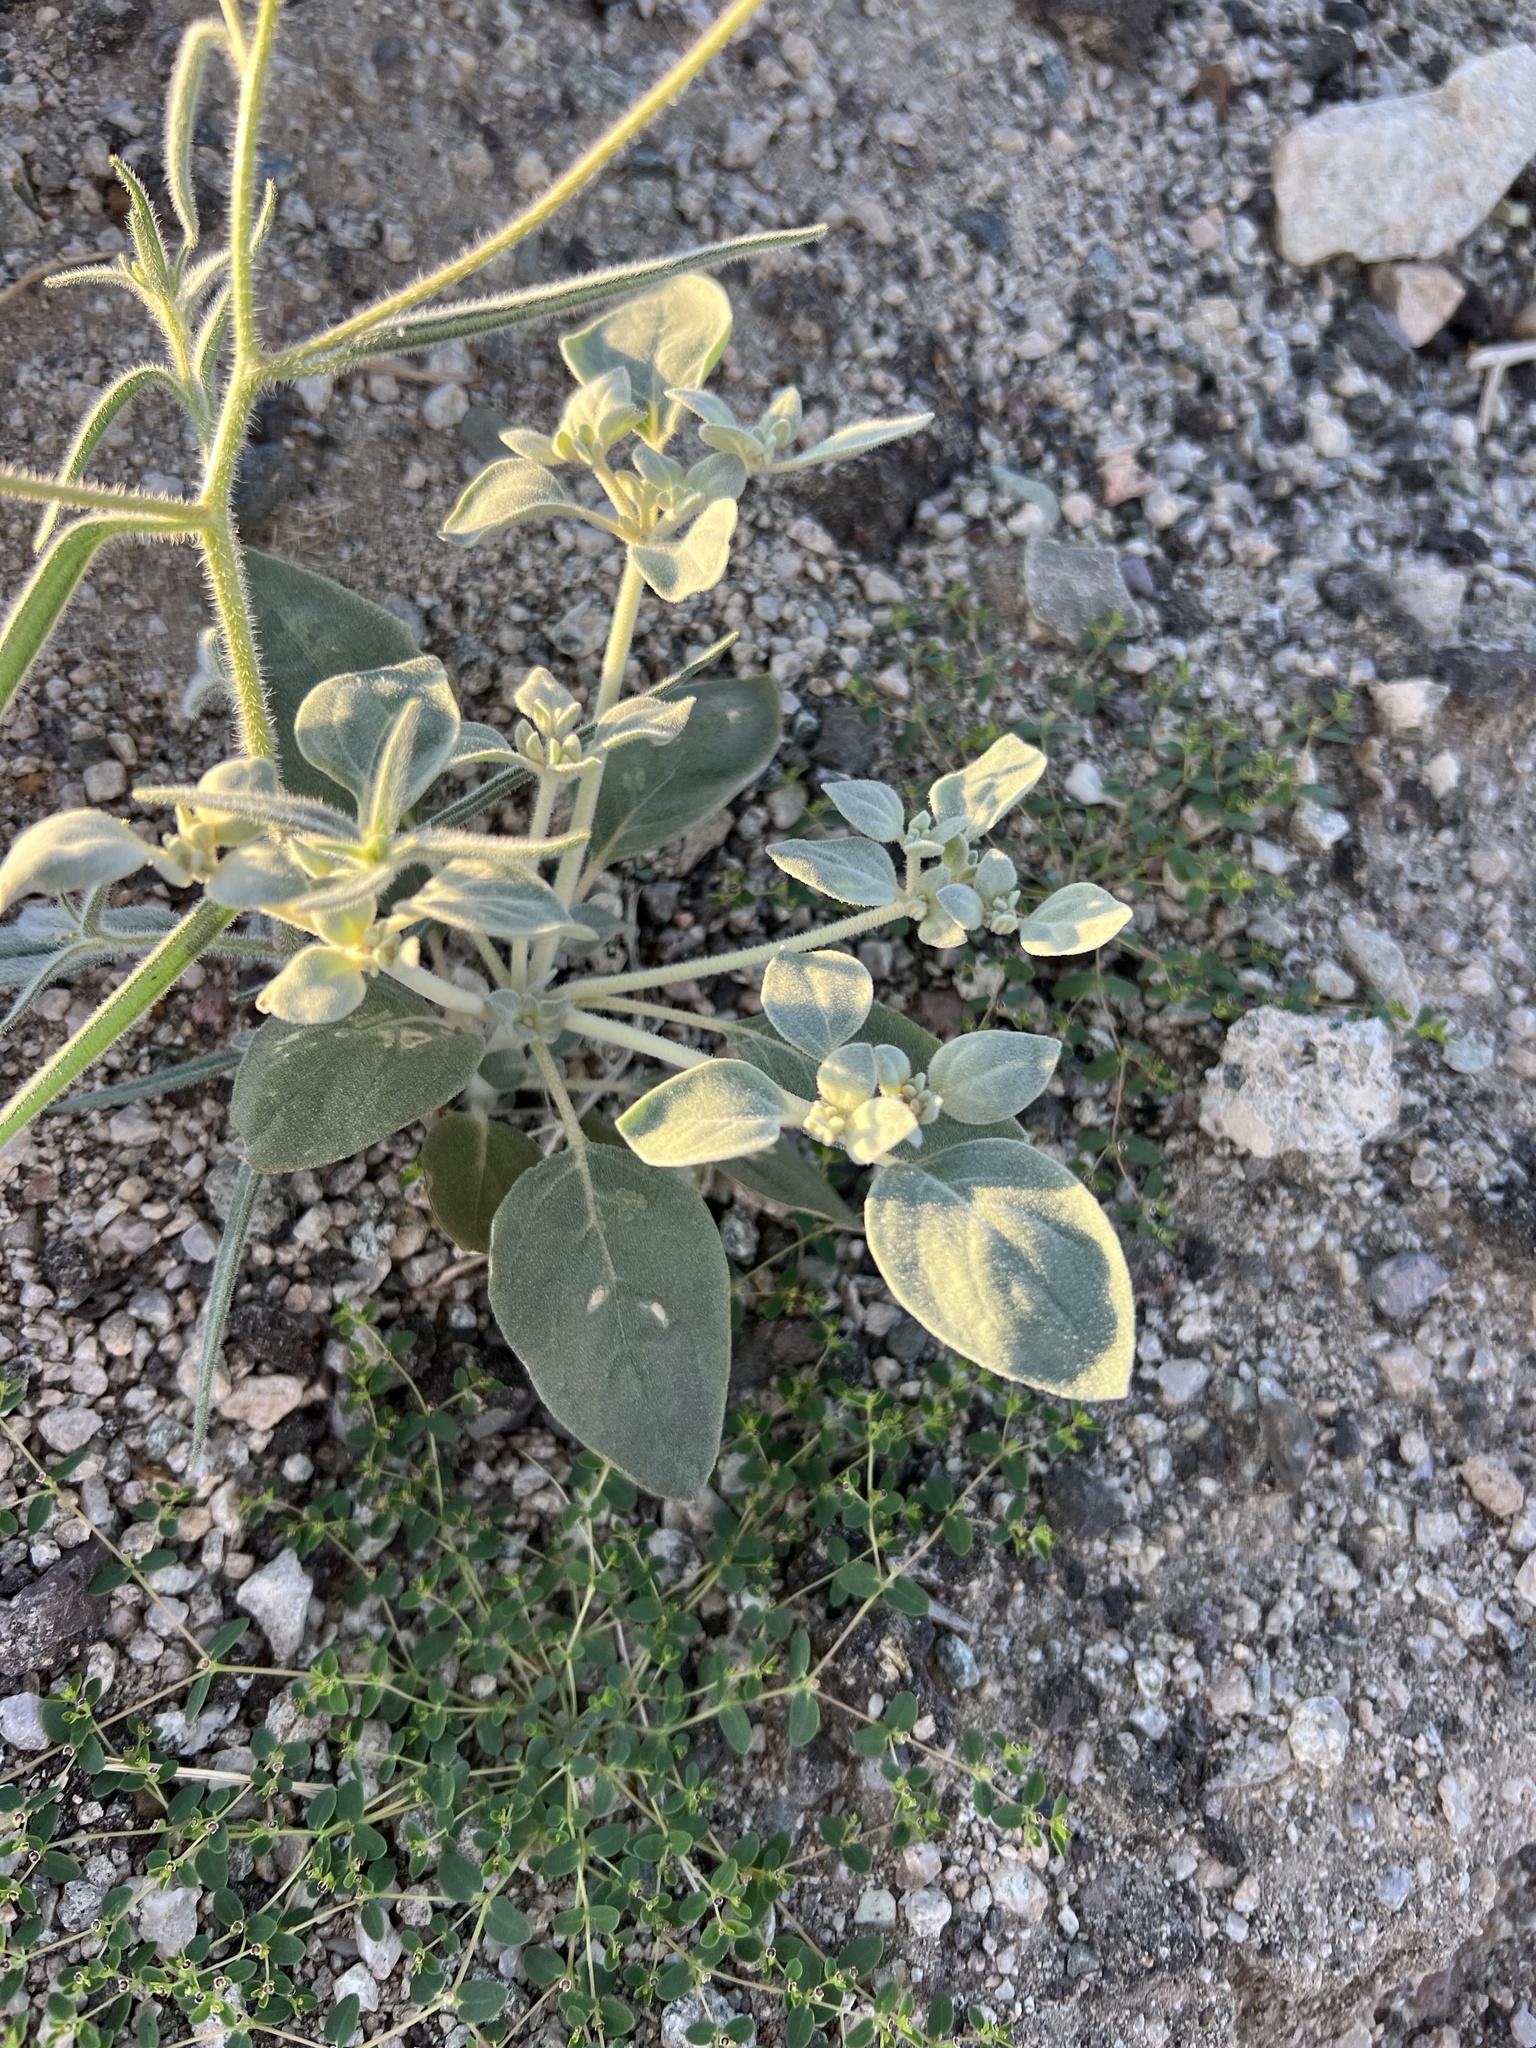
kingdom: Plantae
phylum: Tracheophyta
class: Magnoliopsida
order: Caryophyllales
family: Amaranthaceae
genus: Tidestromia
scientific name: Tidestromia suffruticosa
